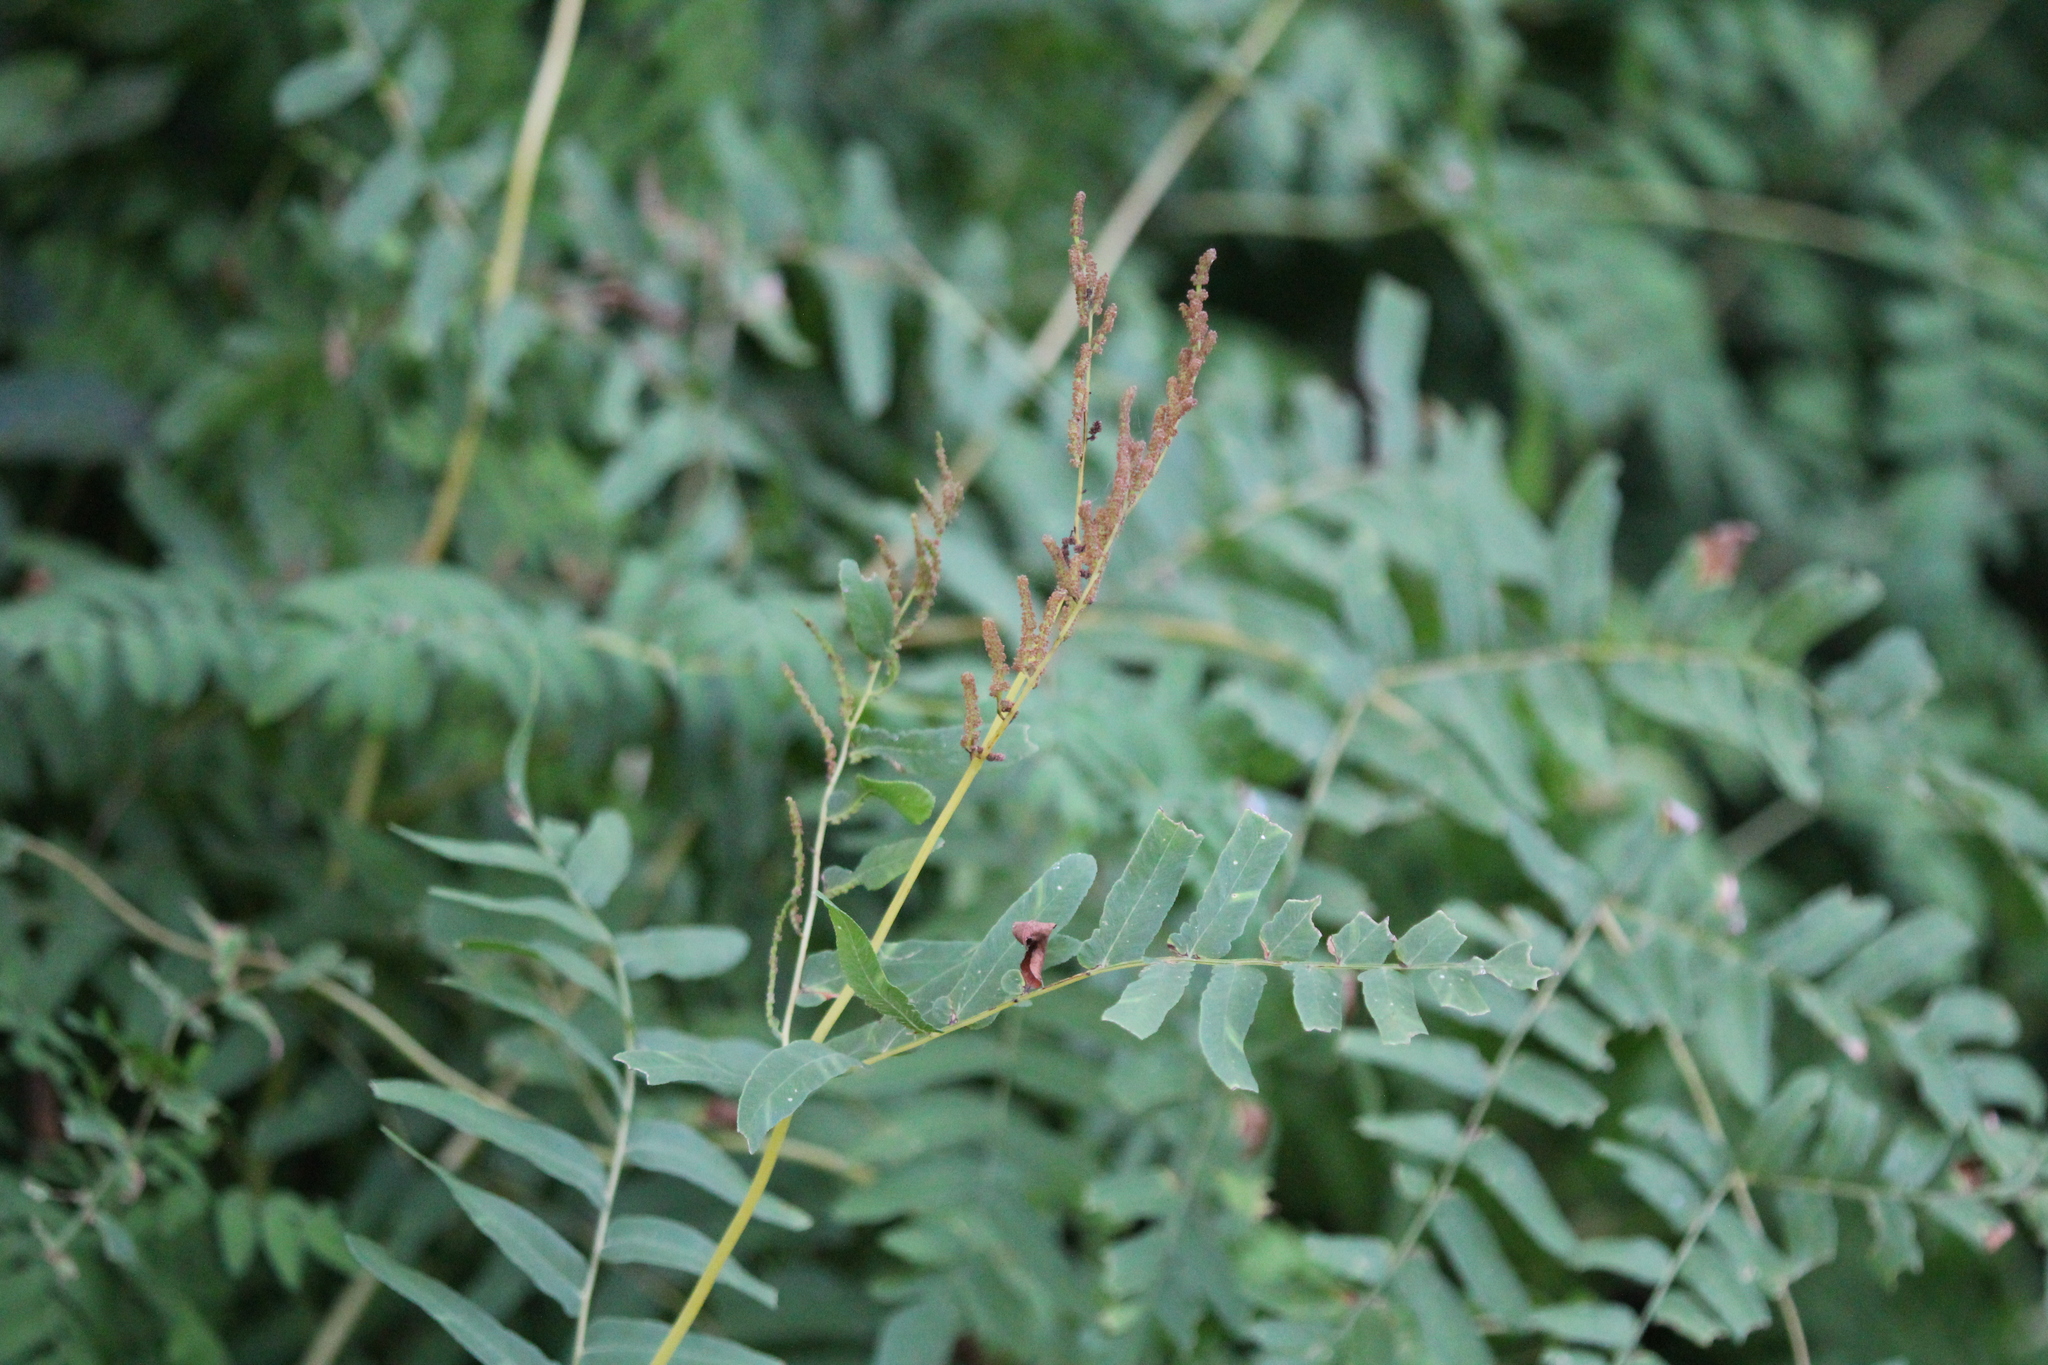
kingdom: Plantae
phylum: Tracheophyta
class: Polypodiopsida
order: Osmundales
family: Osmundaceae
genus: Osmunda
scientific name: Osmunda spectabilis
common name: American royal fern
